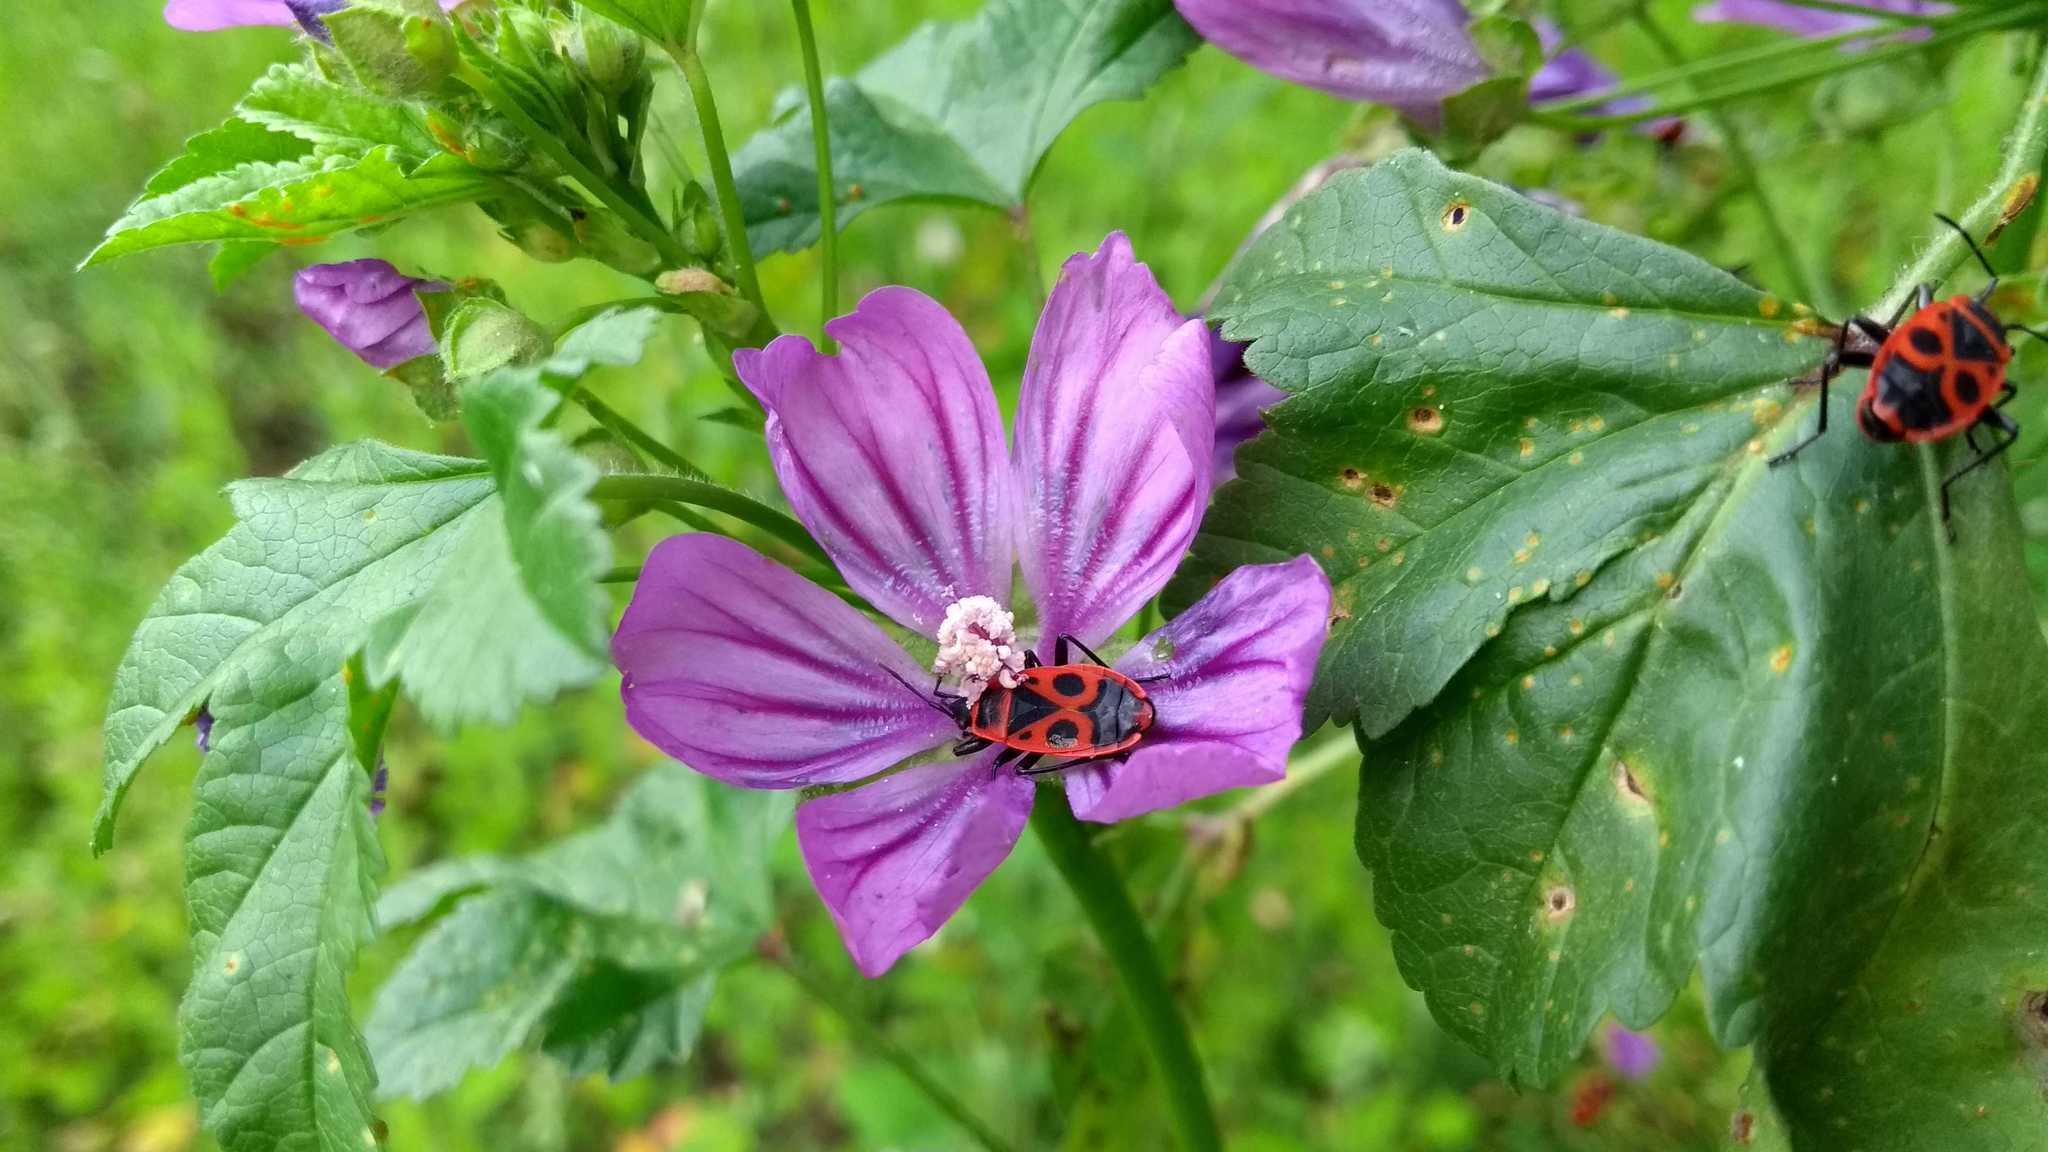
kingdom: Animalia
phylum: Arthropoda
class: Insecta
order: Hemiptera
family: Pyrrhocoridae
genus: Pyrrhocoris
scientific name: Pyrrhocoris apterus
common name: Firebug
